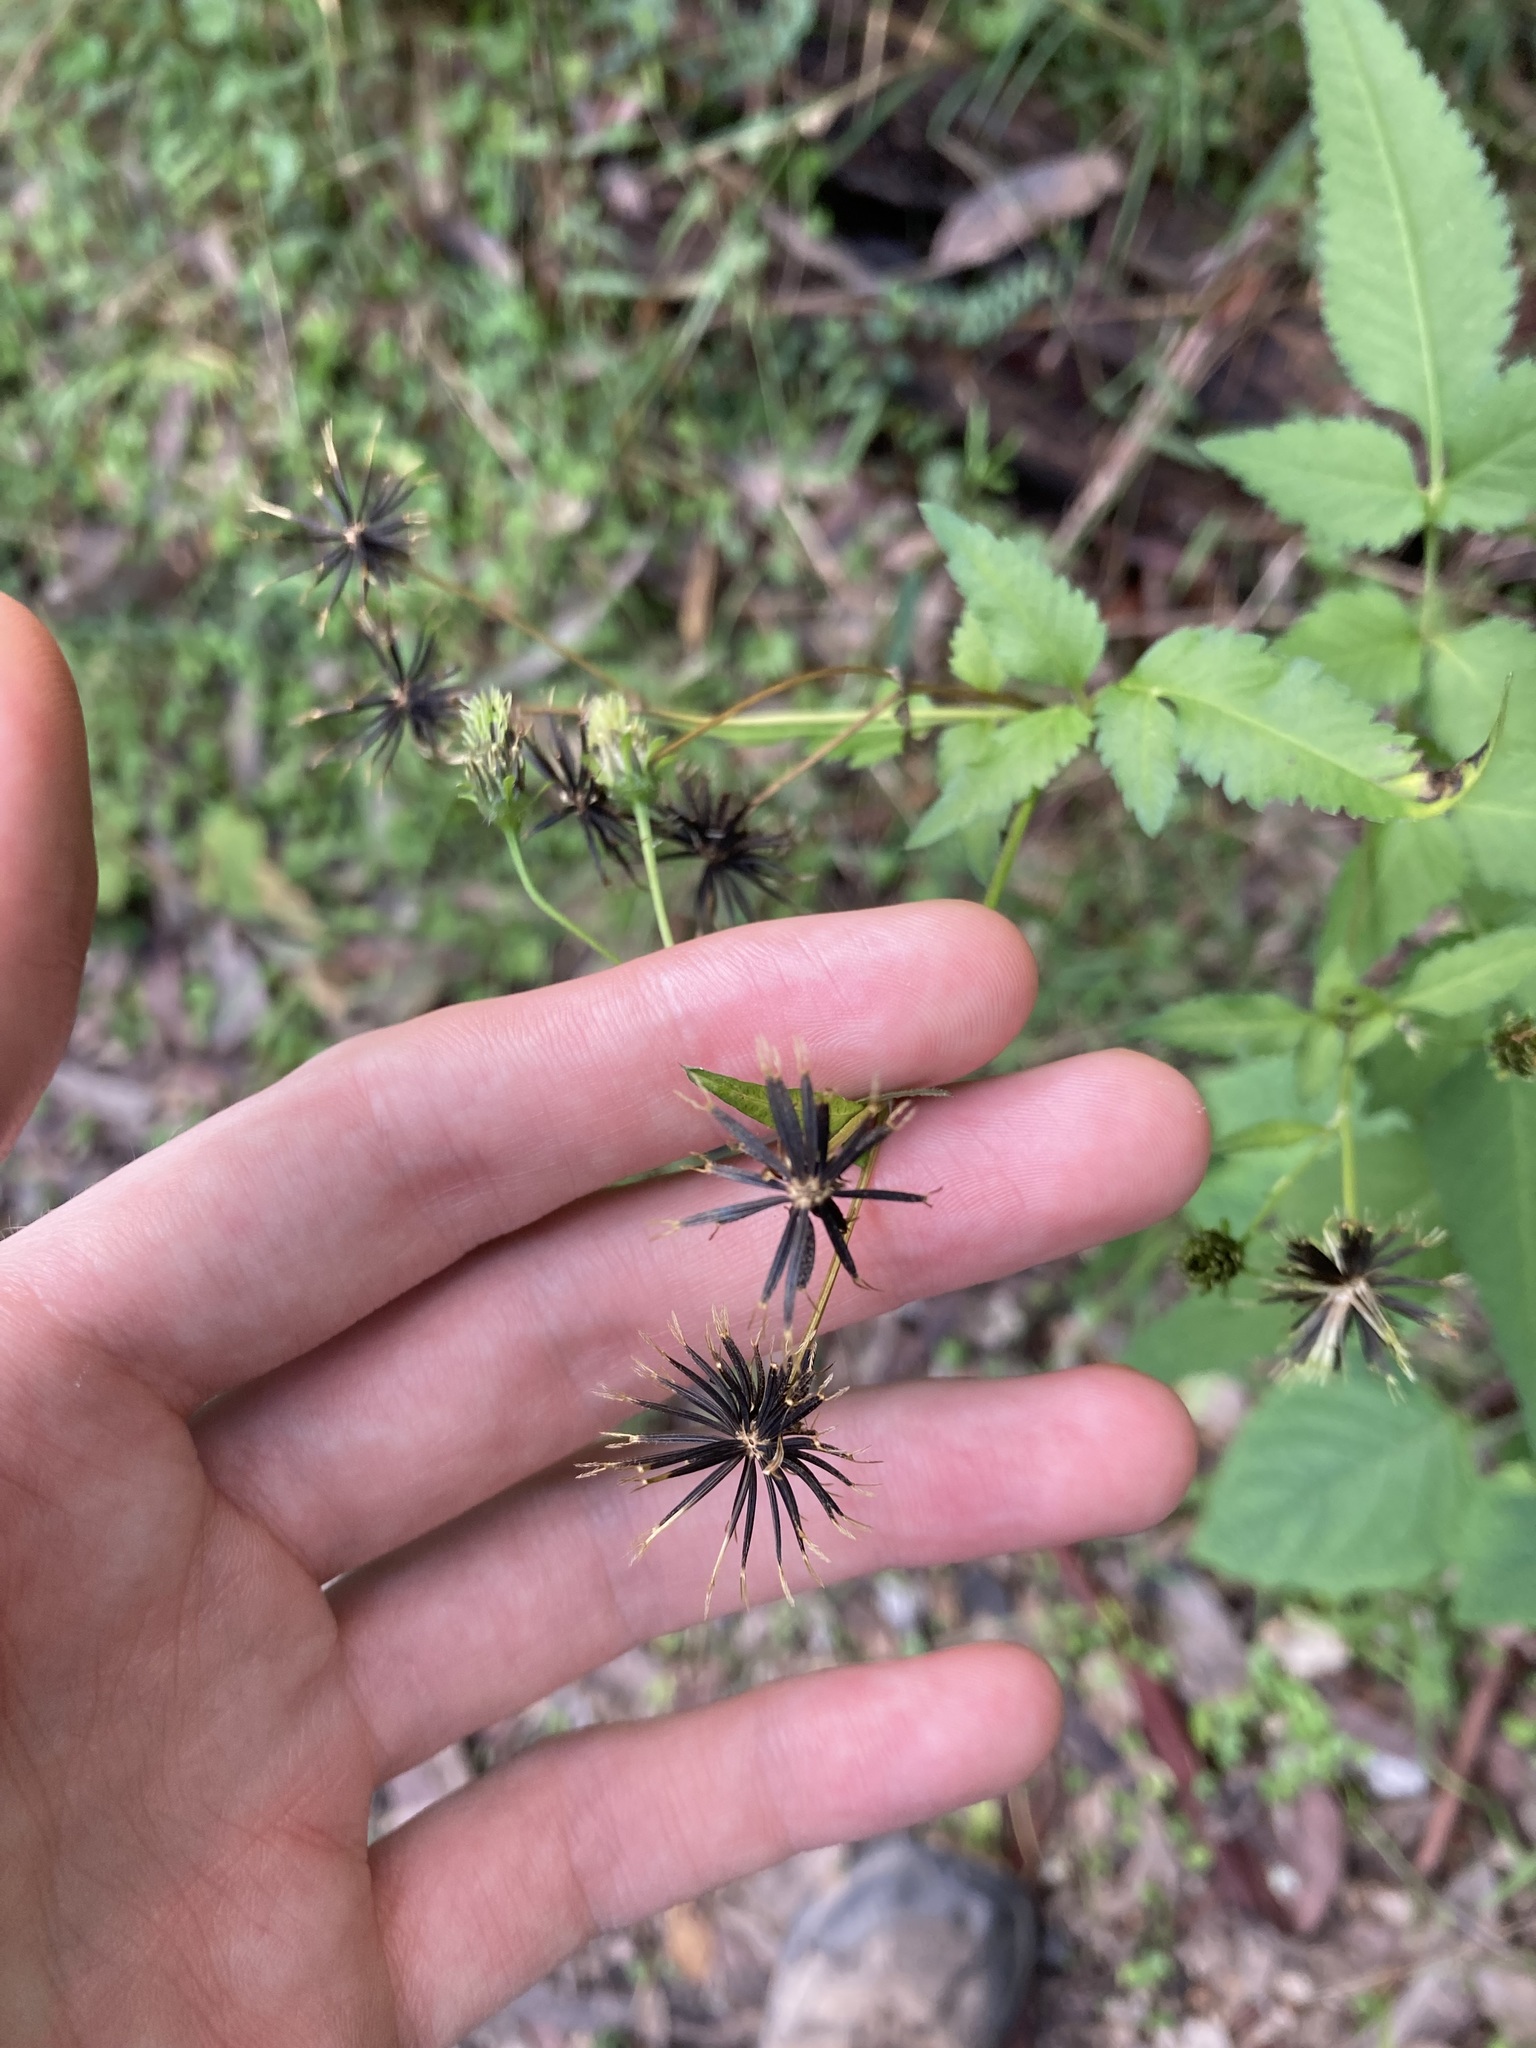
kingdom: Plantae
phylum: Tracheophyta
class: Magnoliopsida
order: Asterales
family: Asteraceae
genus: Bidens
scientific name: Bidens pilosa
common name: Black-jack
